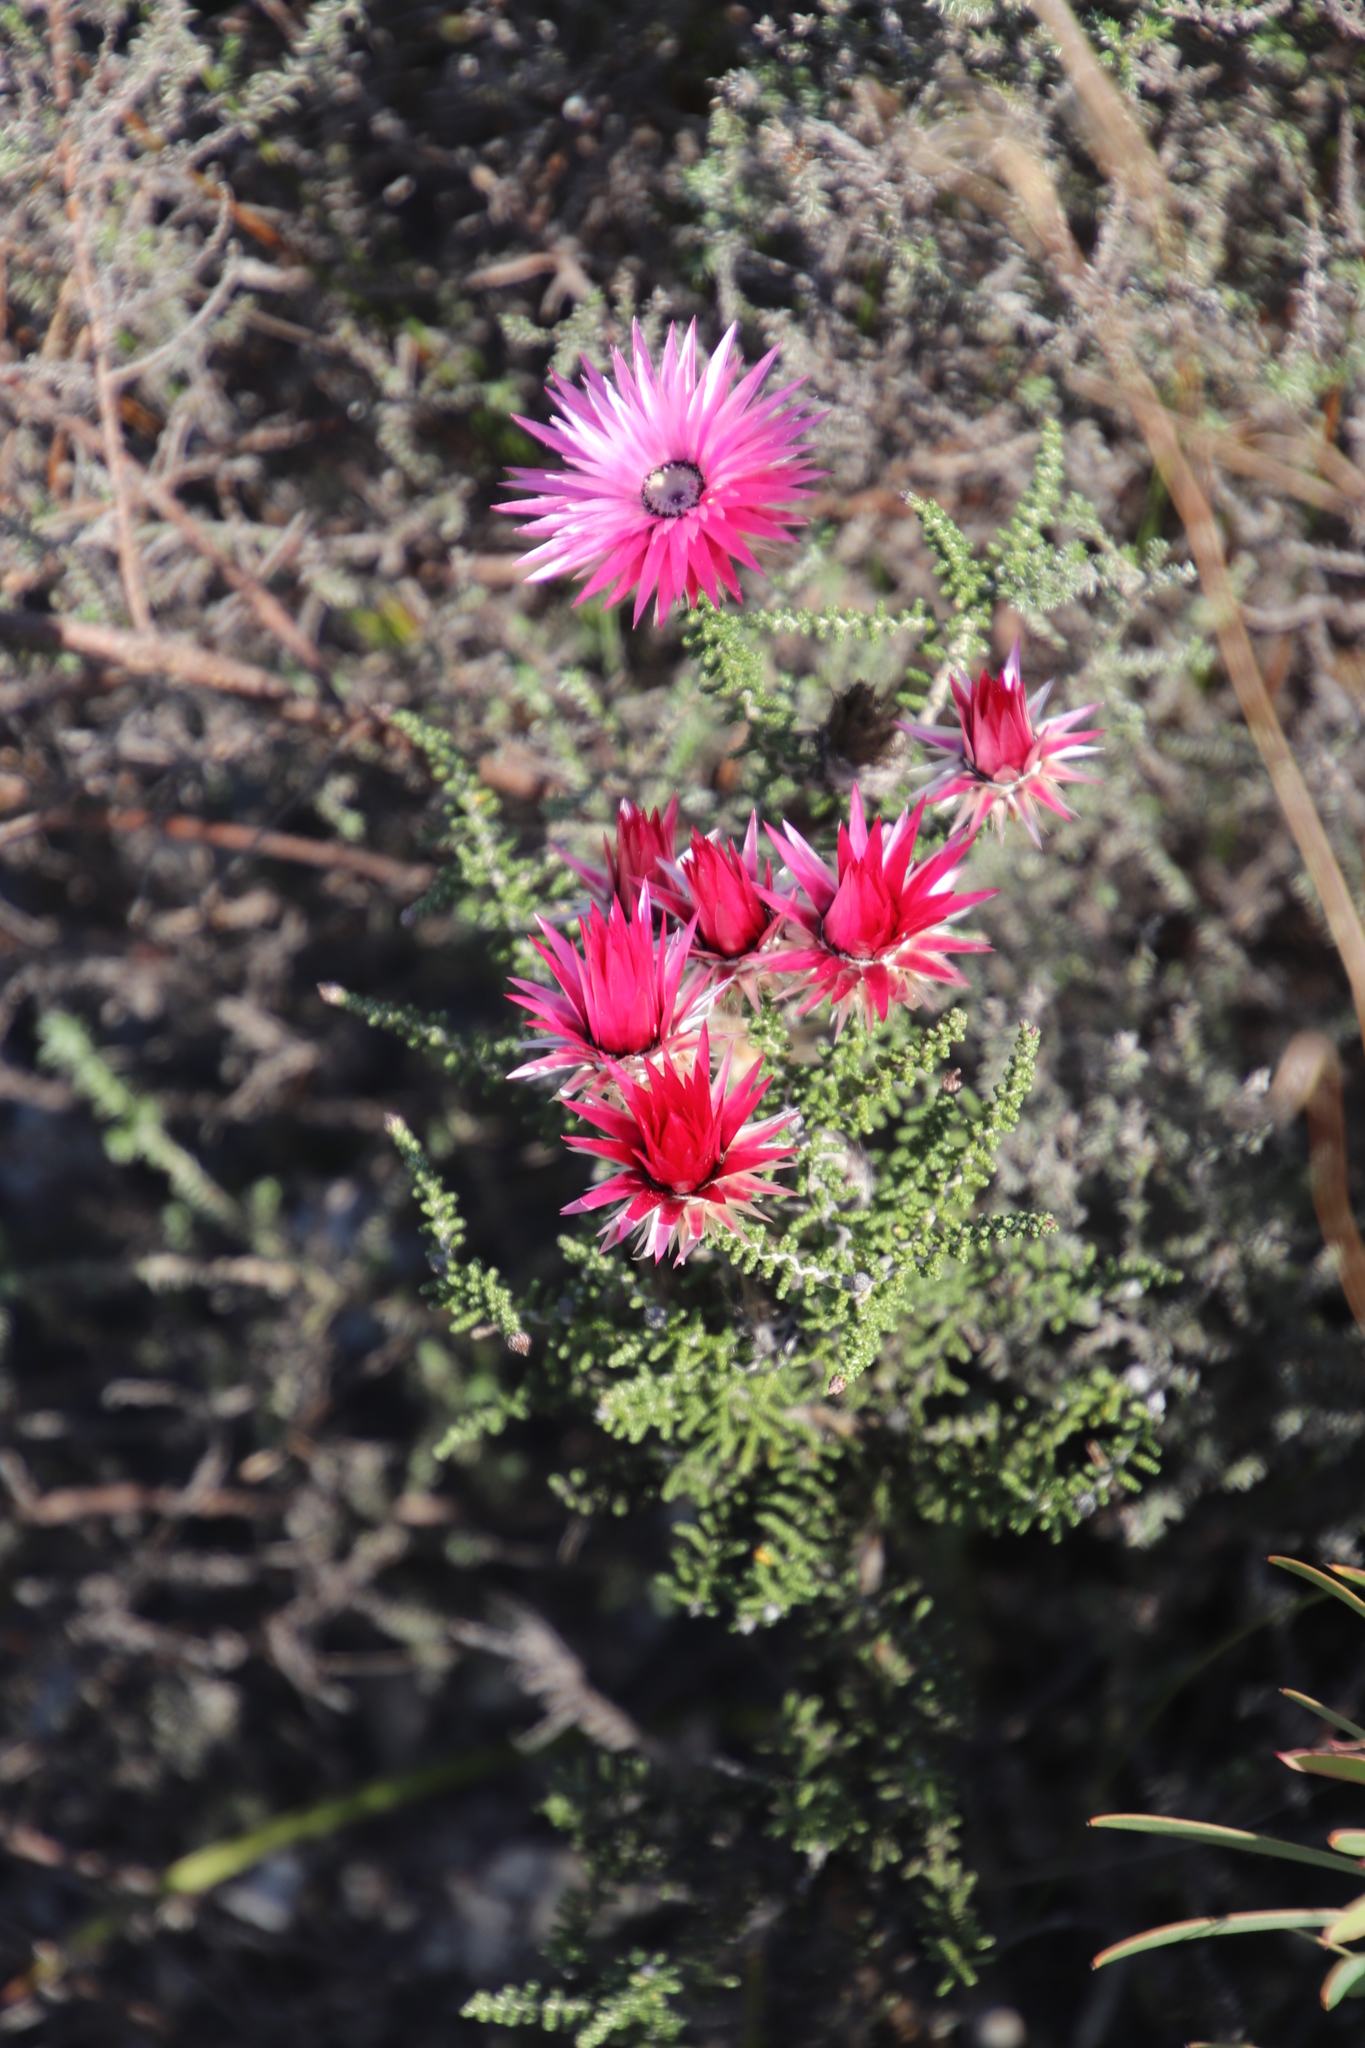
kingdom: Plantae
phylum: Tracheophyta
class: Magnoliopsida
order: Asterales
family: Asteraceae
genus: Phaenocoma
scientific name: Phaenocoma prolifera
